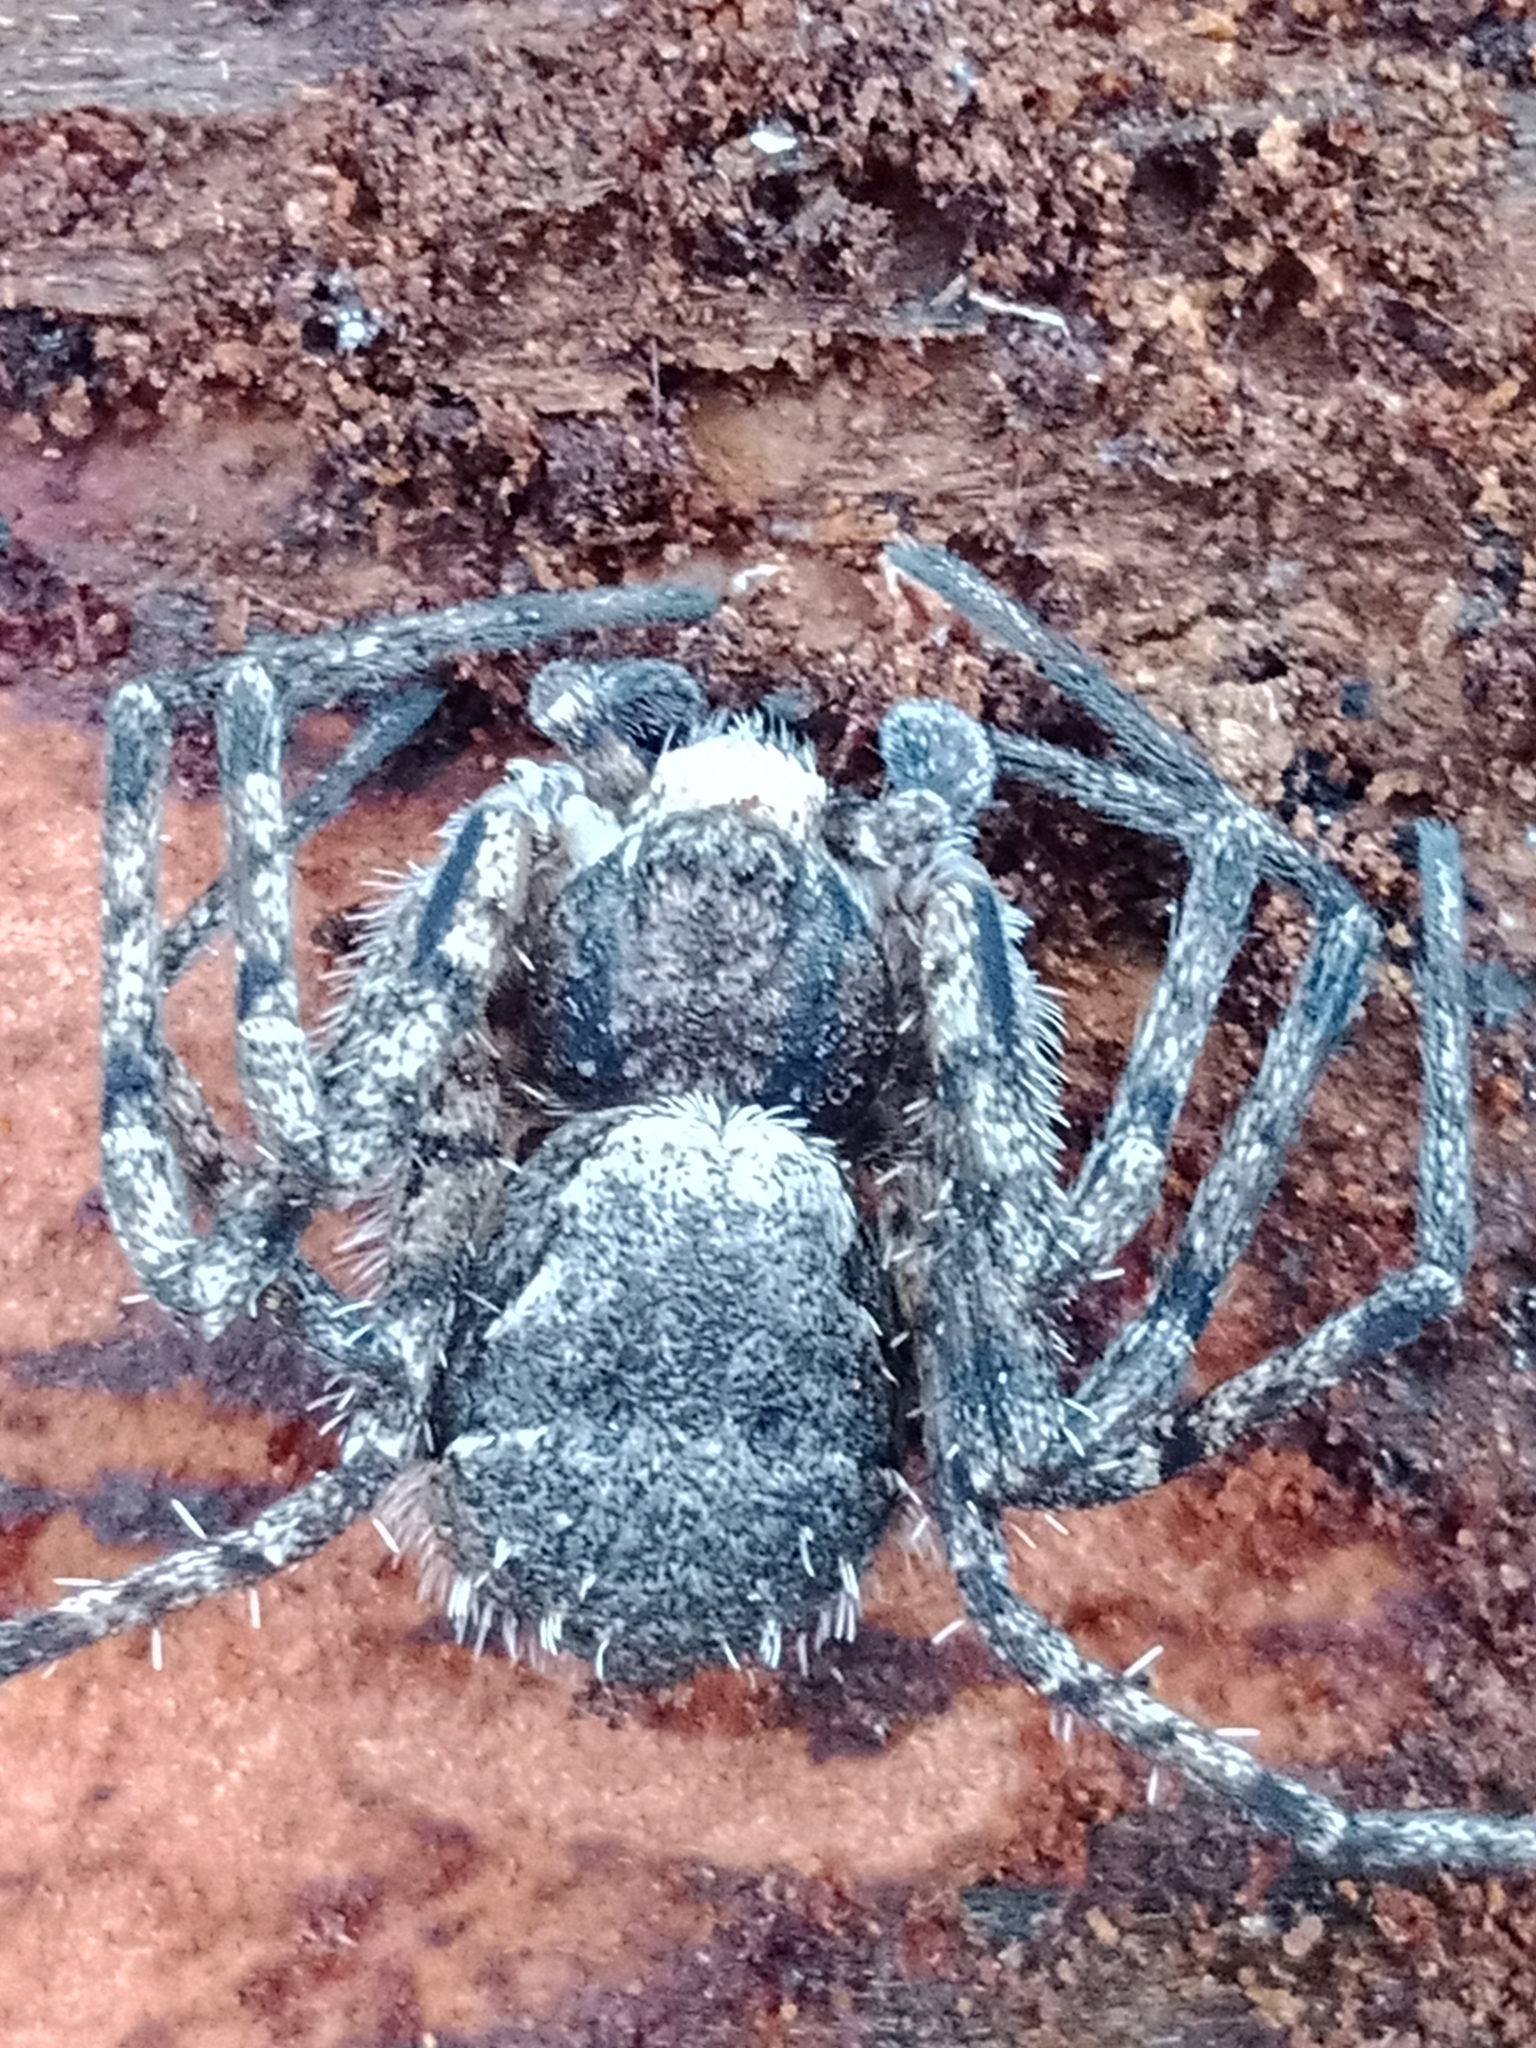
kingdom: Animalia
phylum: Arthropoda
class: Arachnida
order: Araneae
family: Philodromidae
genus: Philodromus
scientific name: Philodromus margaritatus
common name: Lichen running-spider
